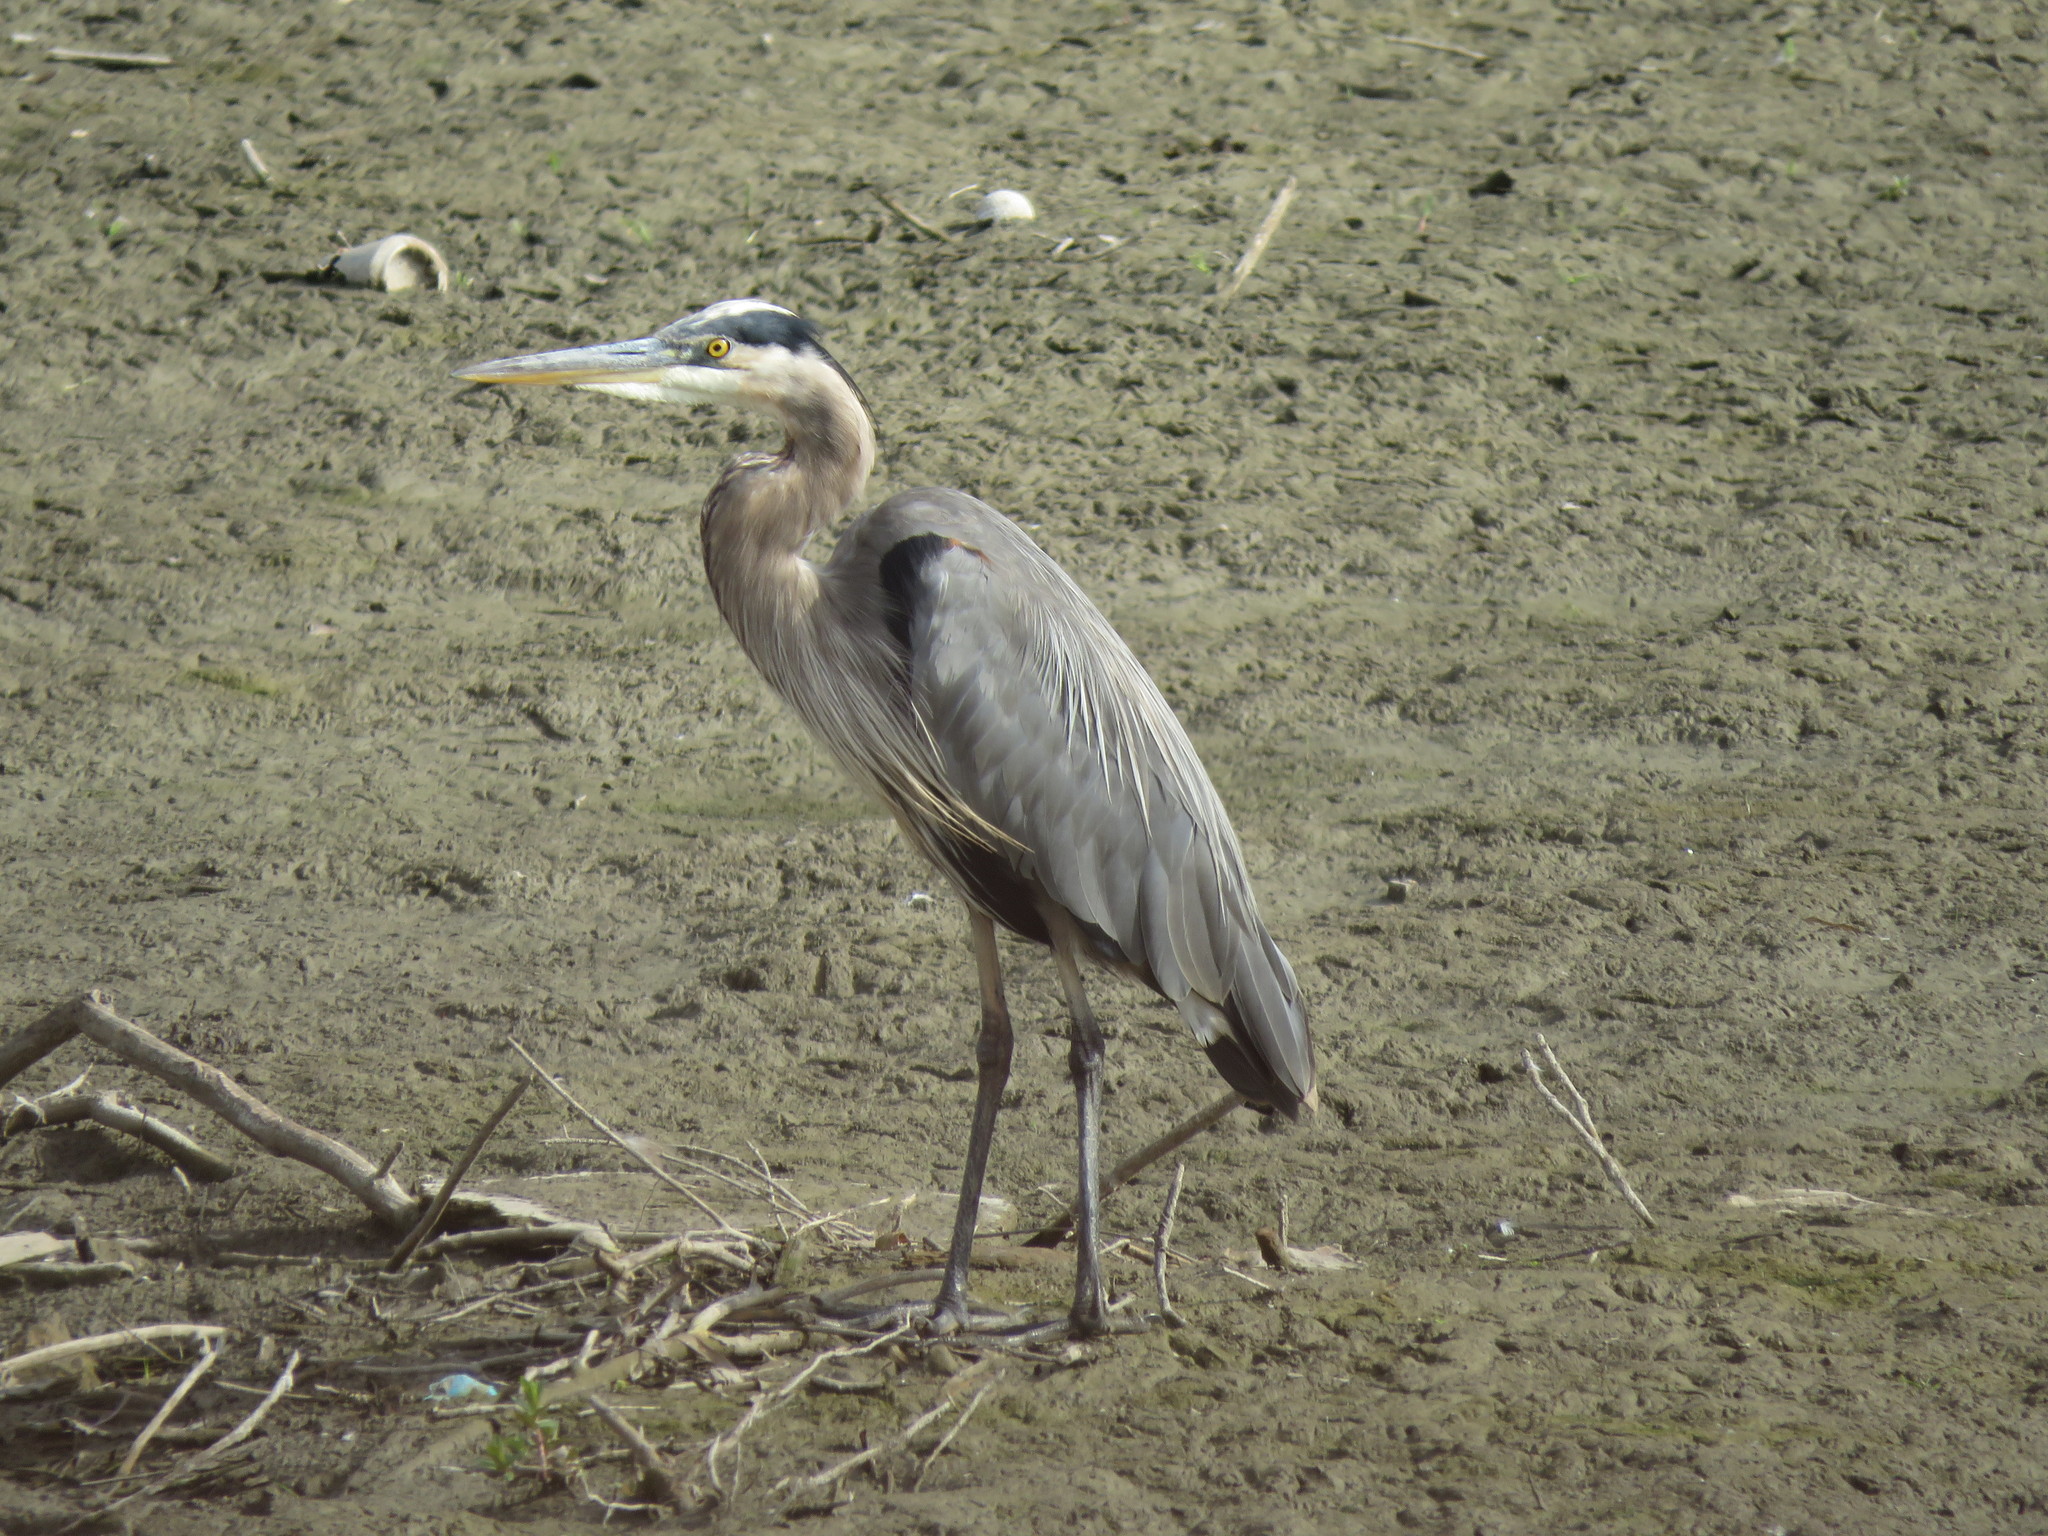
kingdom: Animalia
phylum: Chordata
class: Aves
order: Pelecaniformes
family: Ardeidae
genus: Ardea
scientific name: Ardea herodias
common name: Great blue heron
